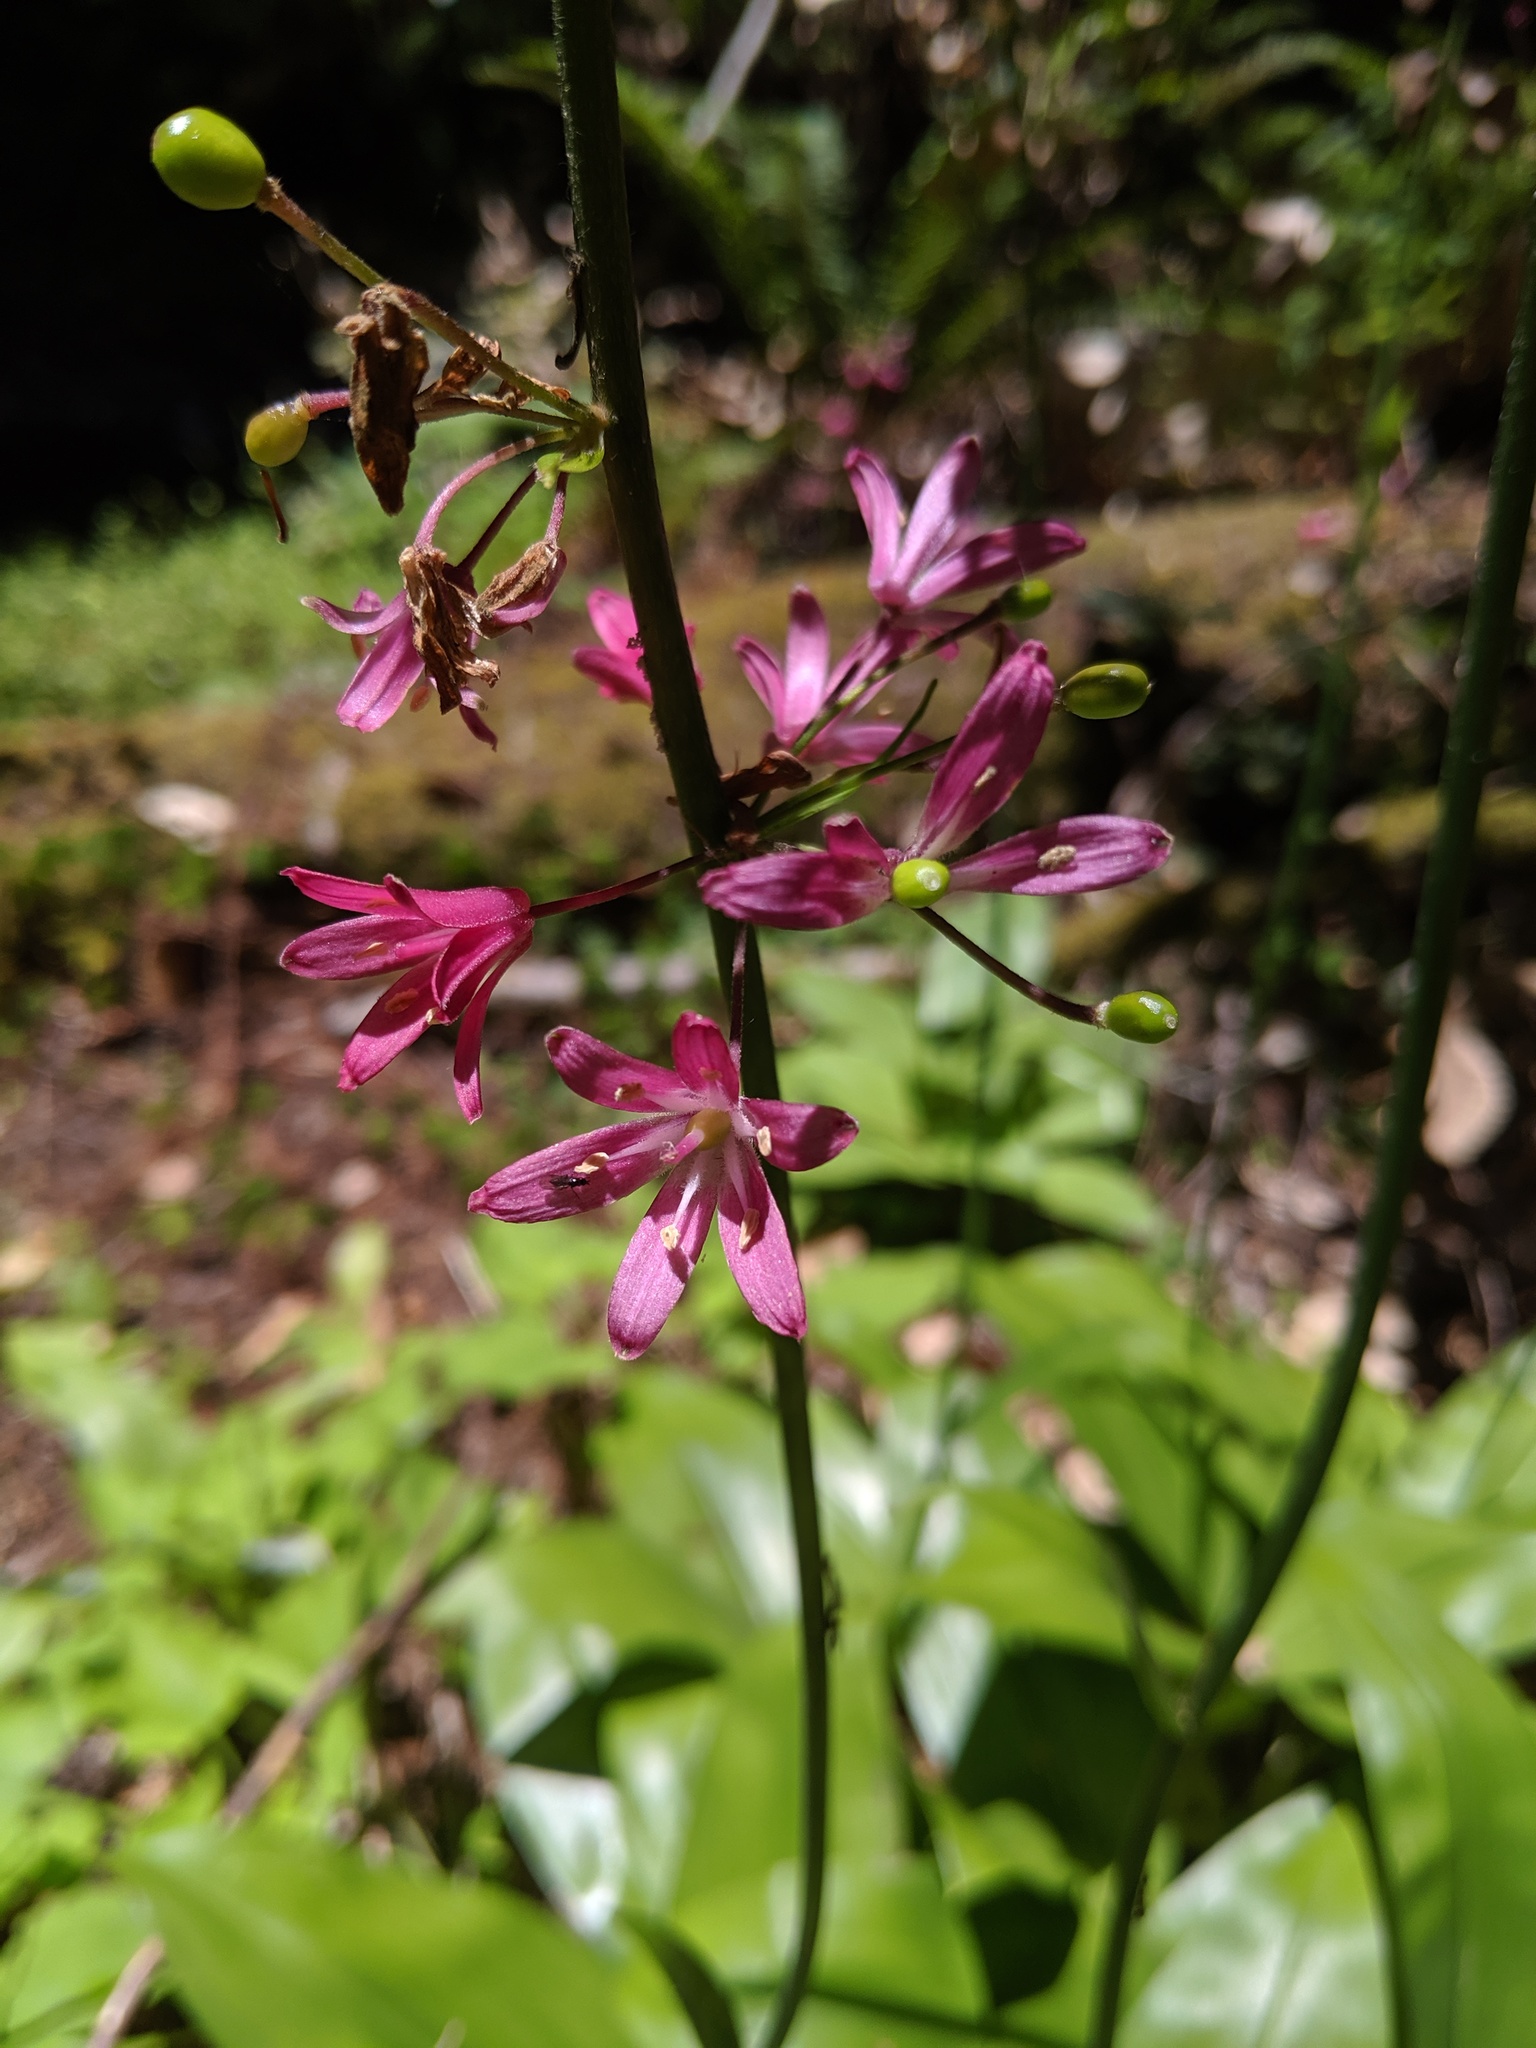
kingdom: Plantae
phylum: Tracheophyta
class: Liliopsida
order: Liliales
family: Liliaceae
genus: Clintonia
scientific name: Clintonia andrewsiana
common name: Red clintonia
